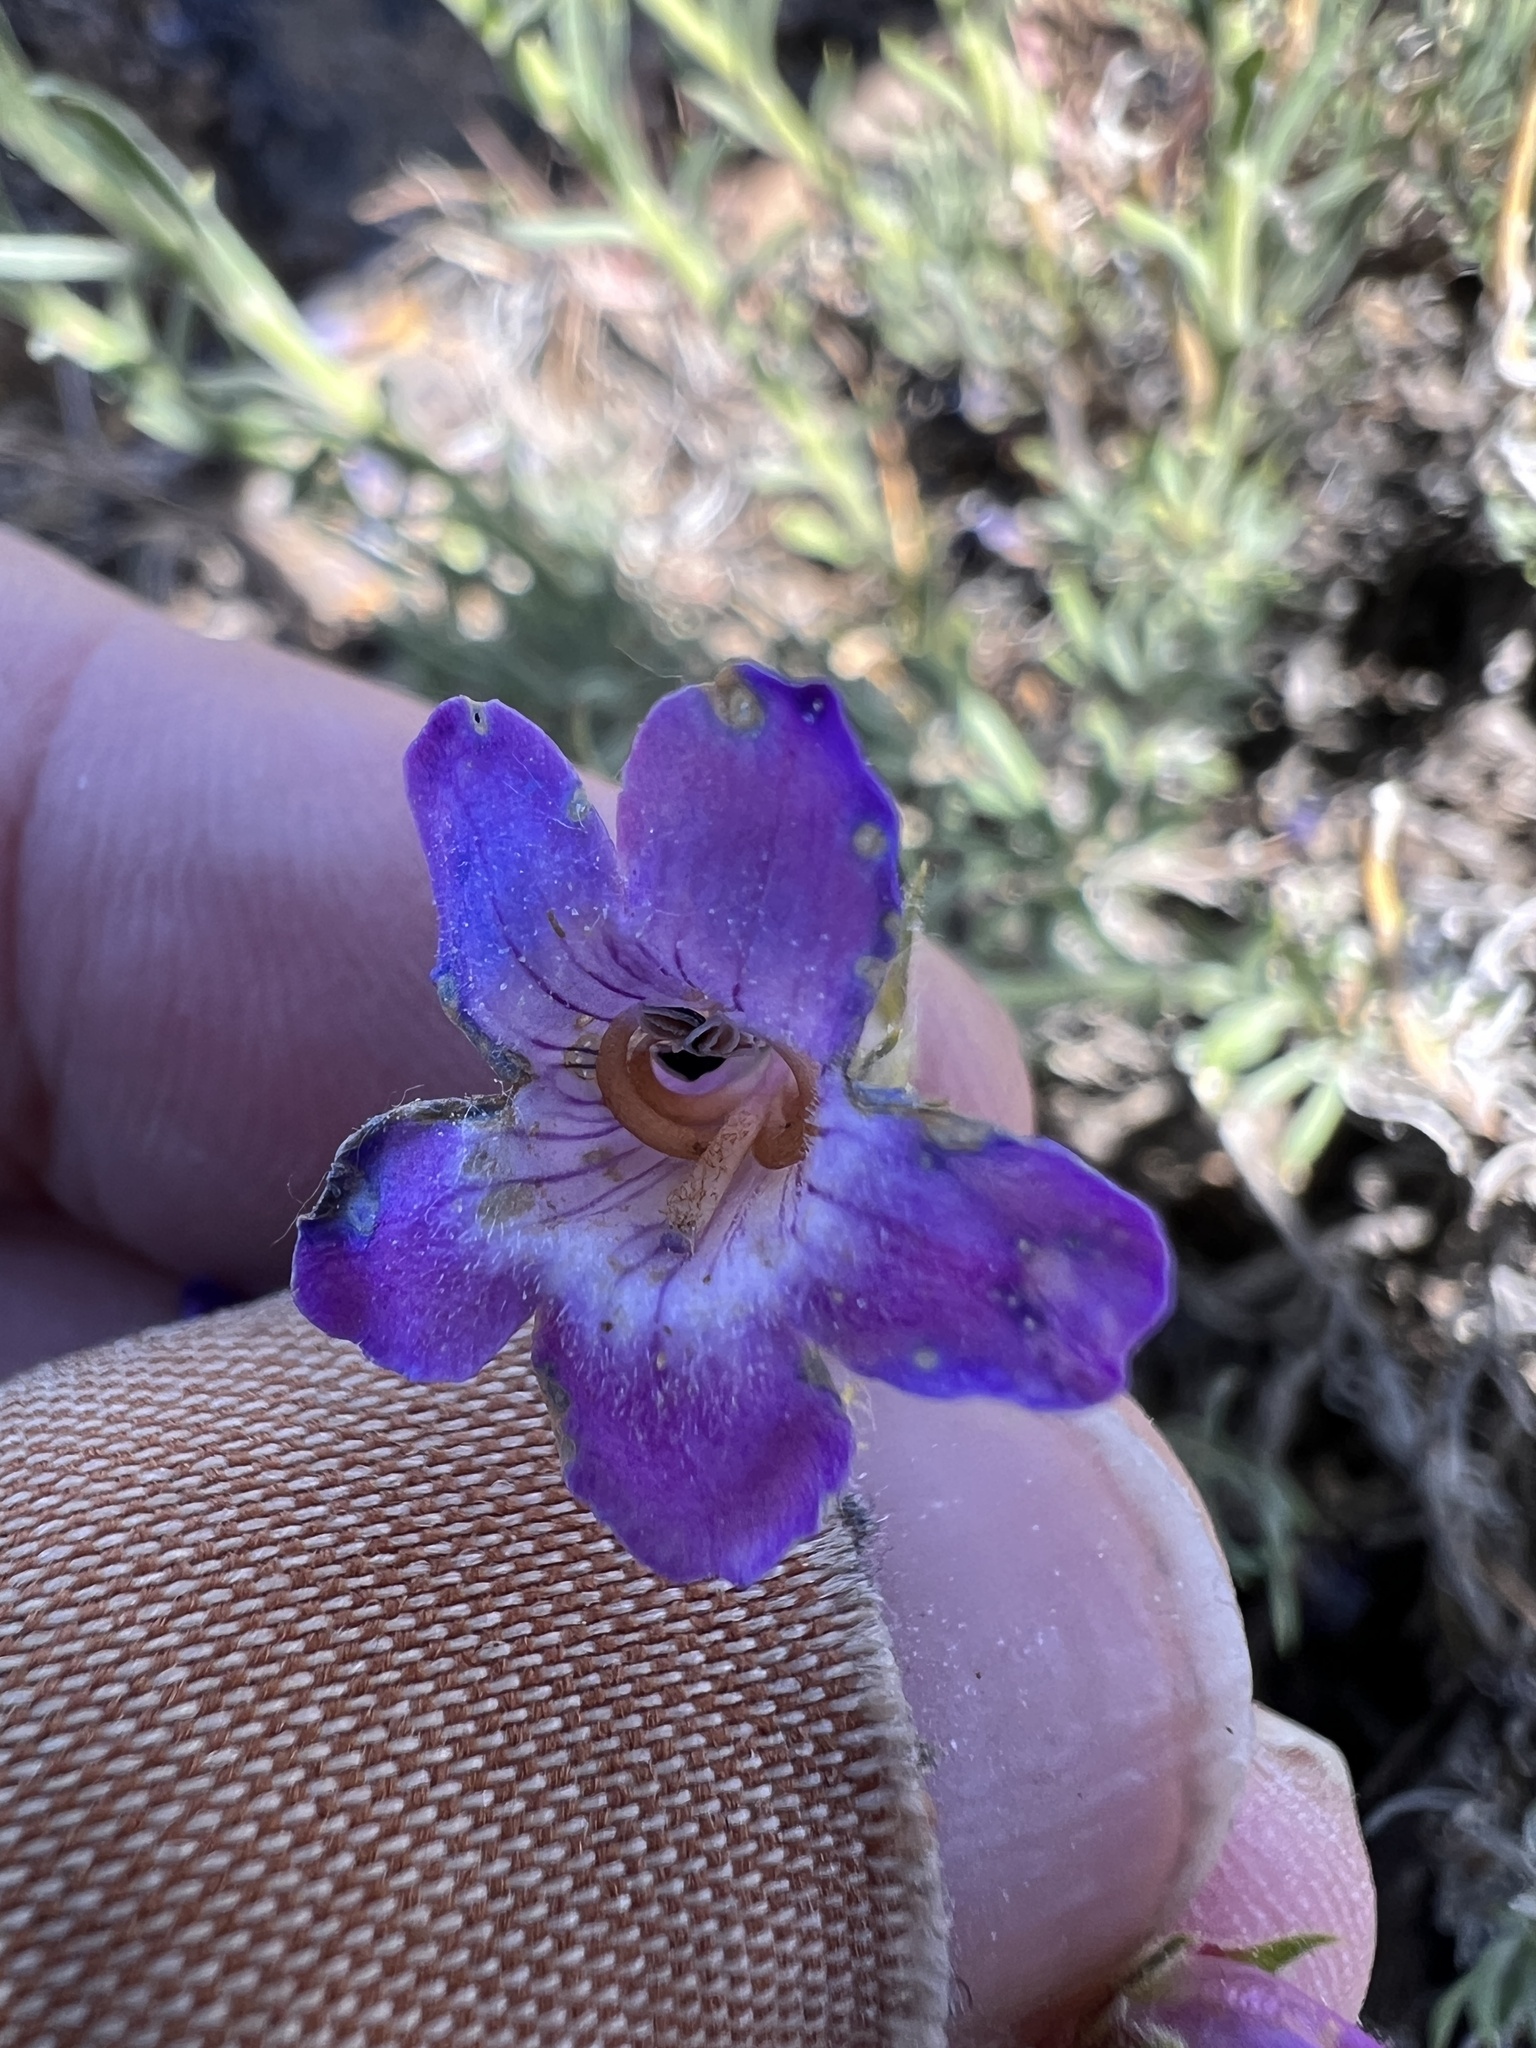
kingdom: Plantae
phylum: Tracheophyta
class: Magnoliopsida
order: Lamiales
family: Plantaginaceae
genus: Penstemon
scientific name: Penstemon gairdneri
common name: Gairdner's penstemon
